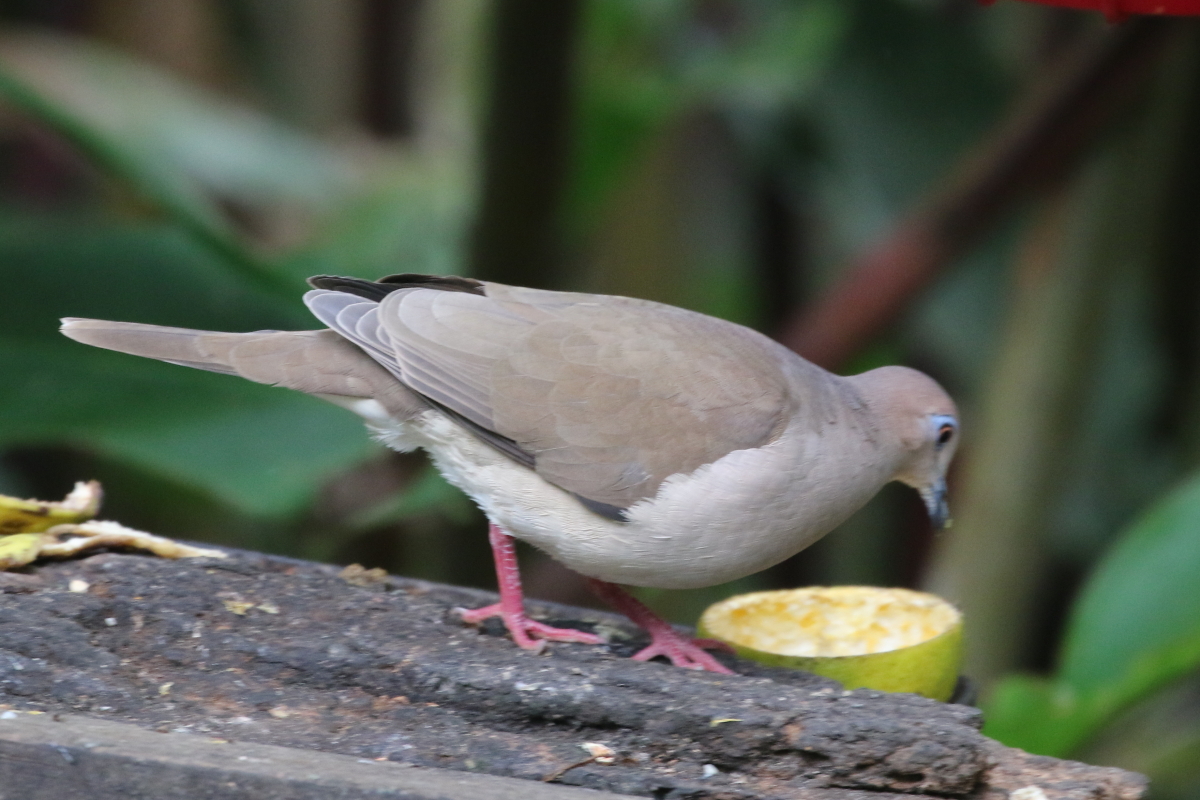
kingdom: Animalia
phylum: Chordata
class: Aves
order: Columbiformes
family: Columbidae
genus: Leptotila
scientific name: Leptotila verreauxi
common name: White-tipped dove
